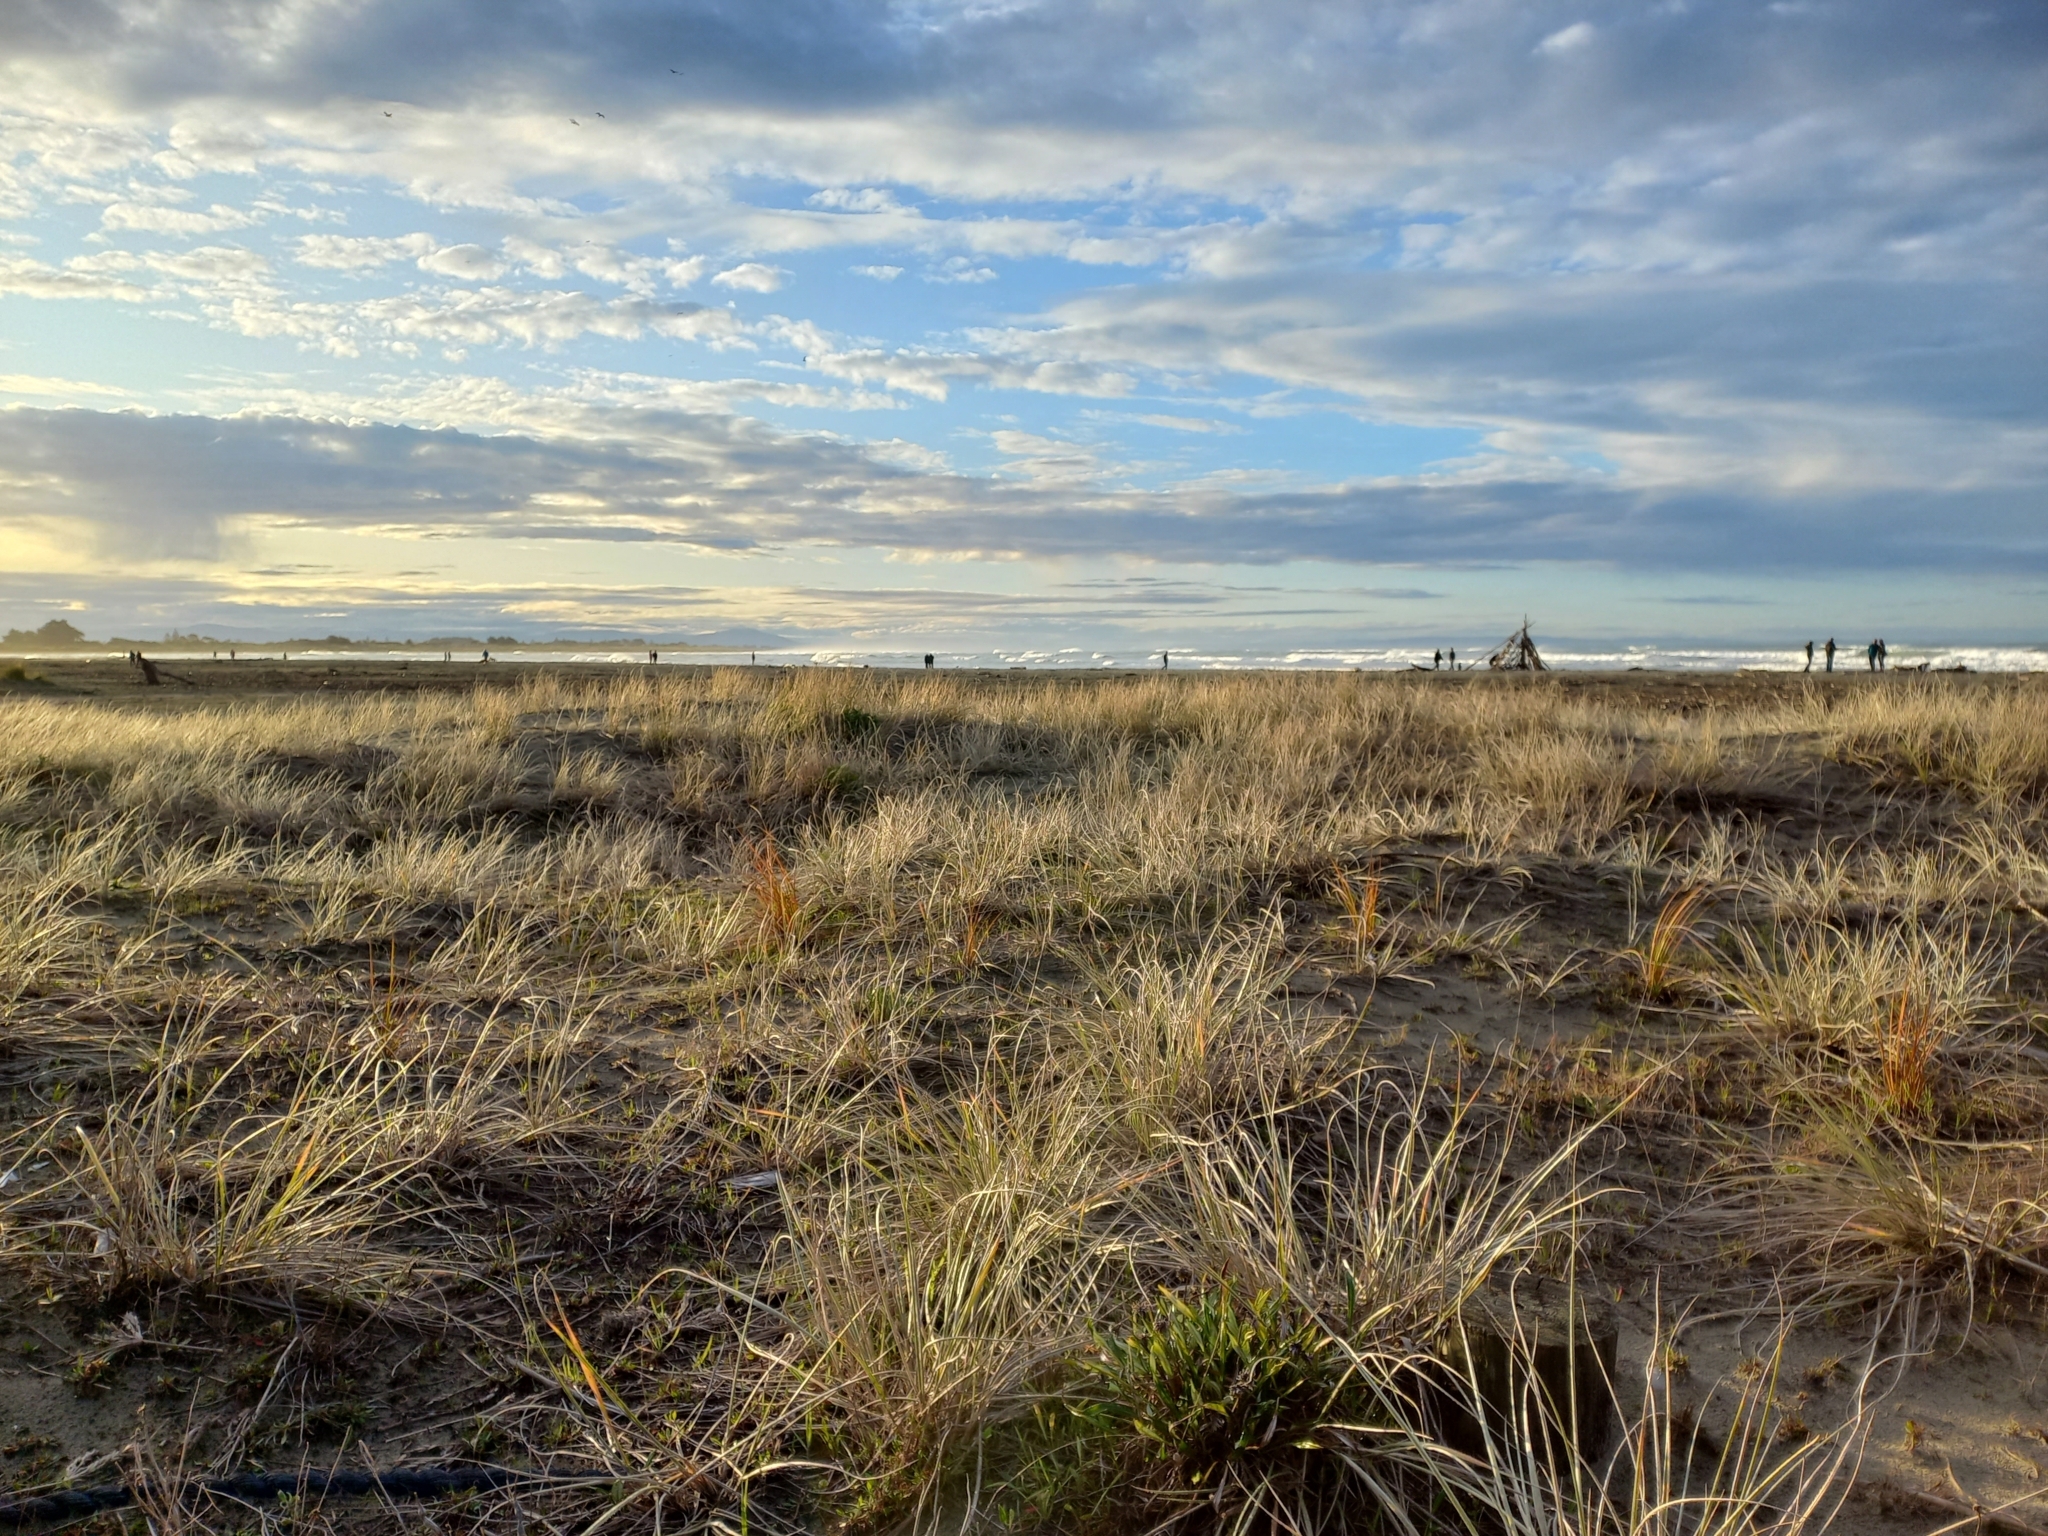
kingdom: Plantae
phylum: Tracheophyta
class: Liliopsida
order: Poales
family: Poaceae
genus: Spinifex
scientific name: Spinifex sericeus
